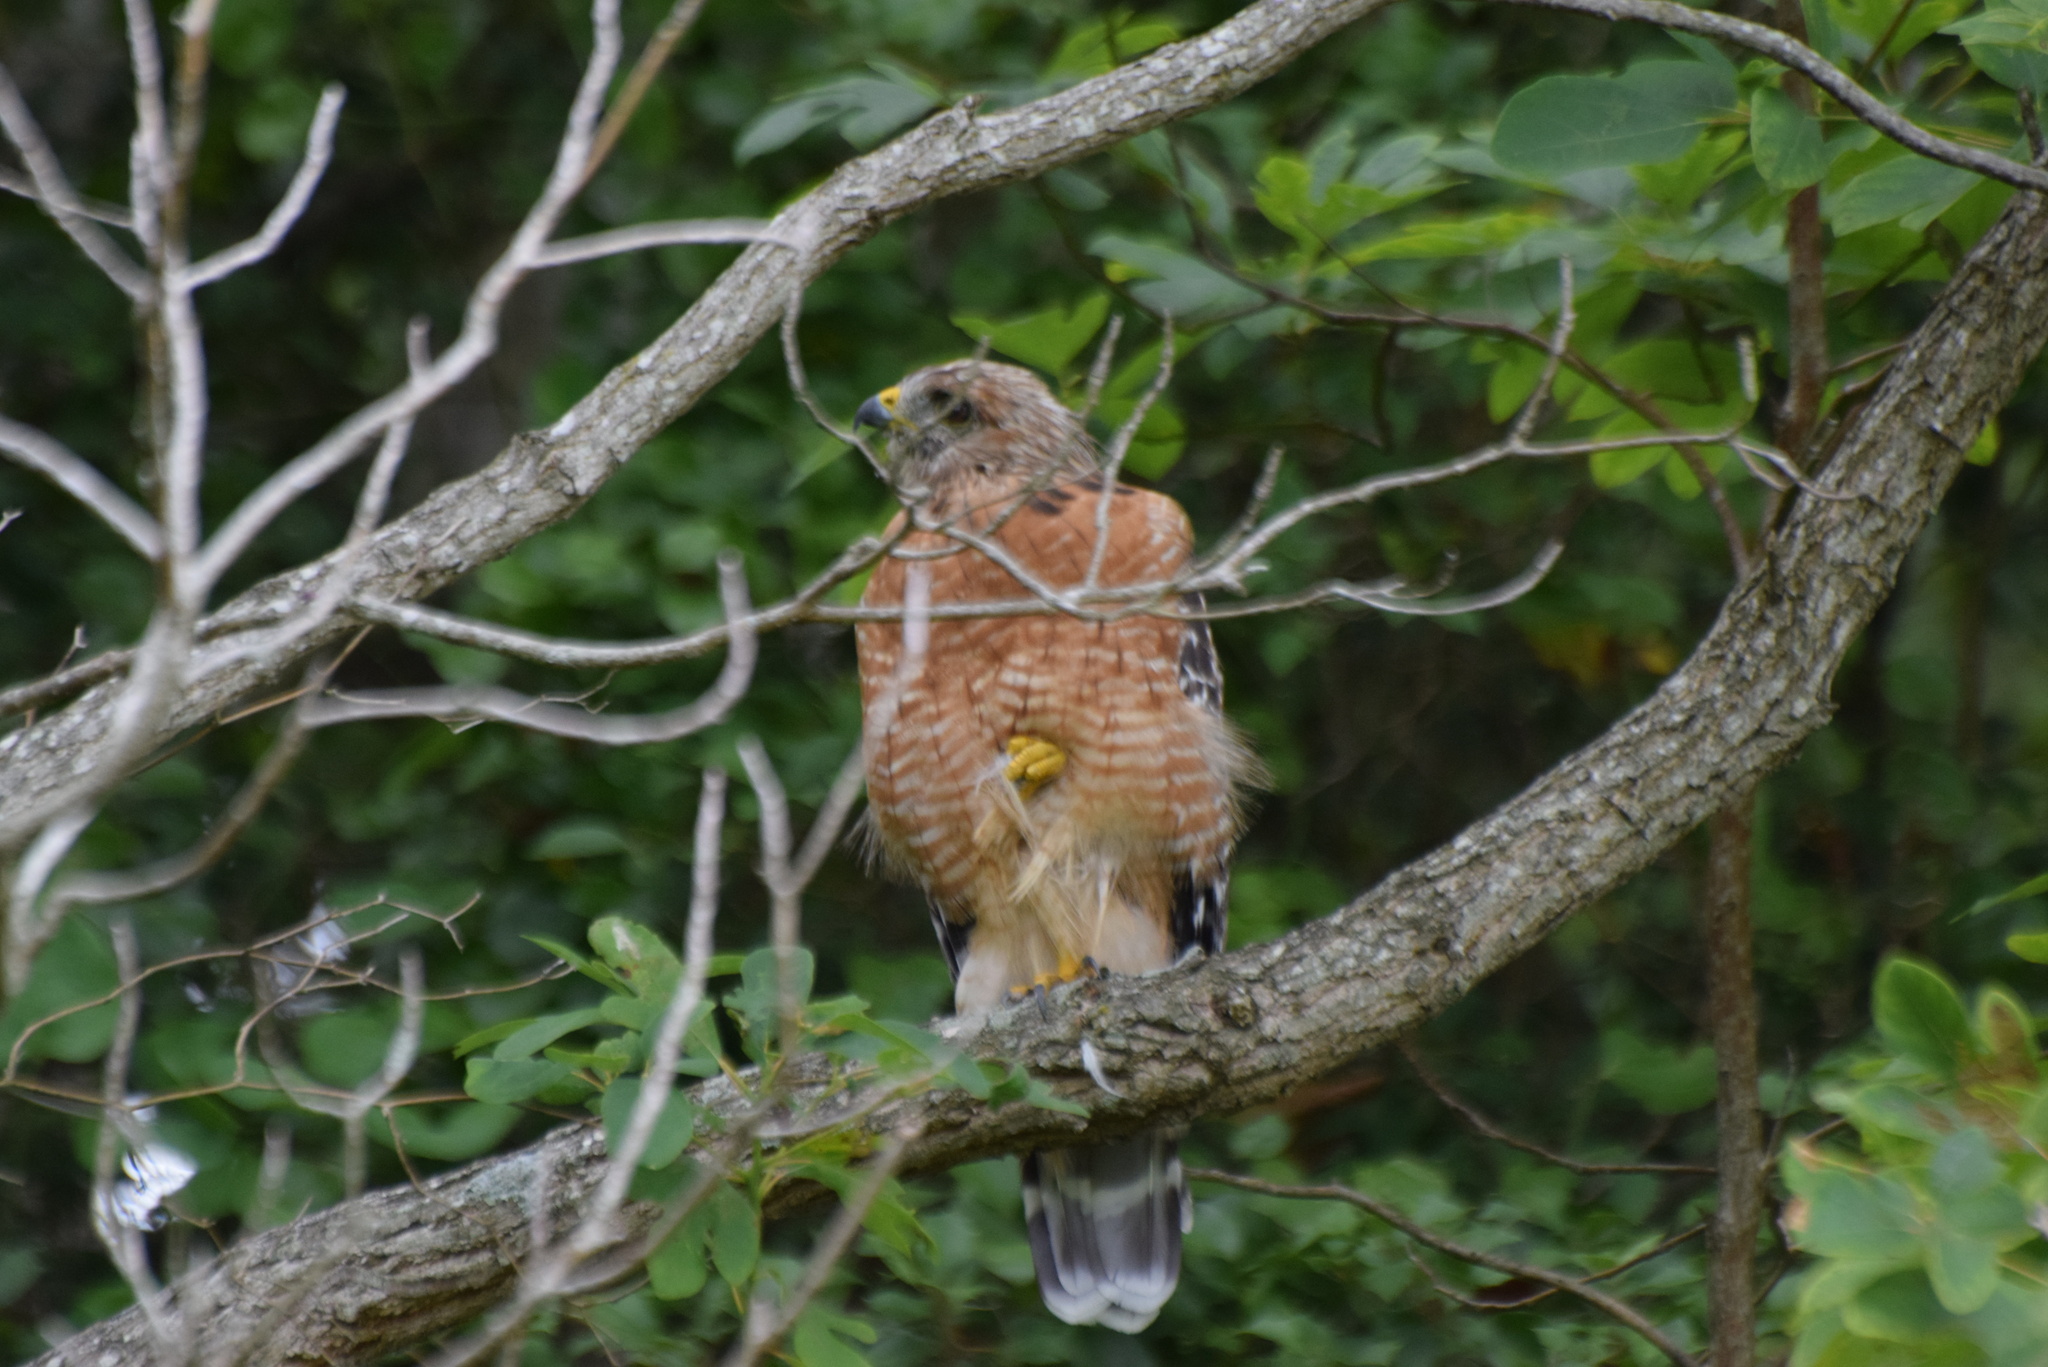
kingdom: Animalia
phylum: Chordata
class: Aves
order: Accipitriformes
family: Accipitridae
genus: Buteo
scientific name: Buteo lineatus
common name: Red-shouldered hawk
